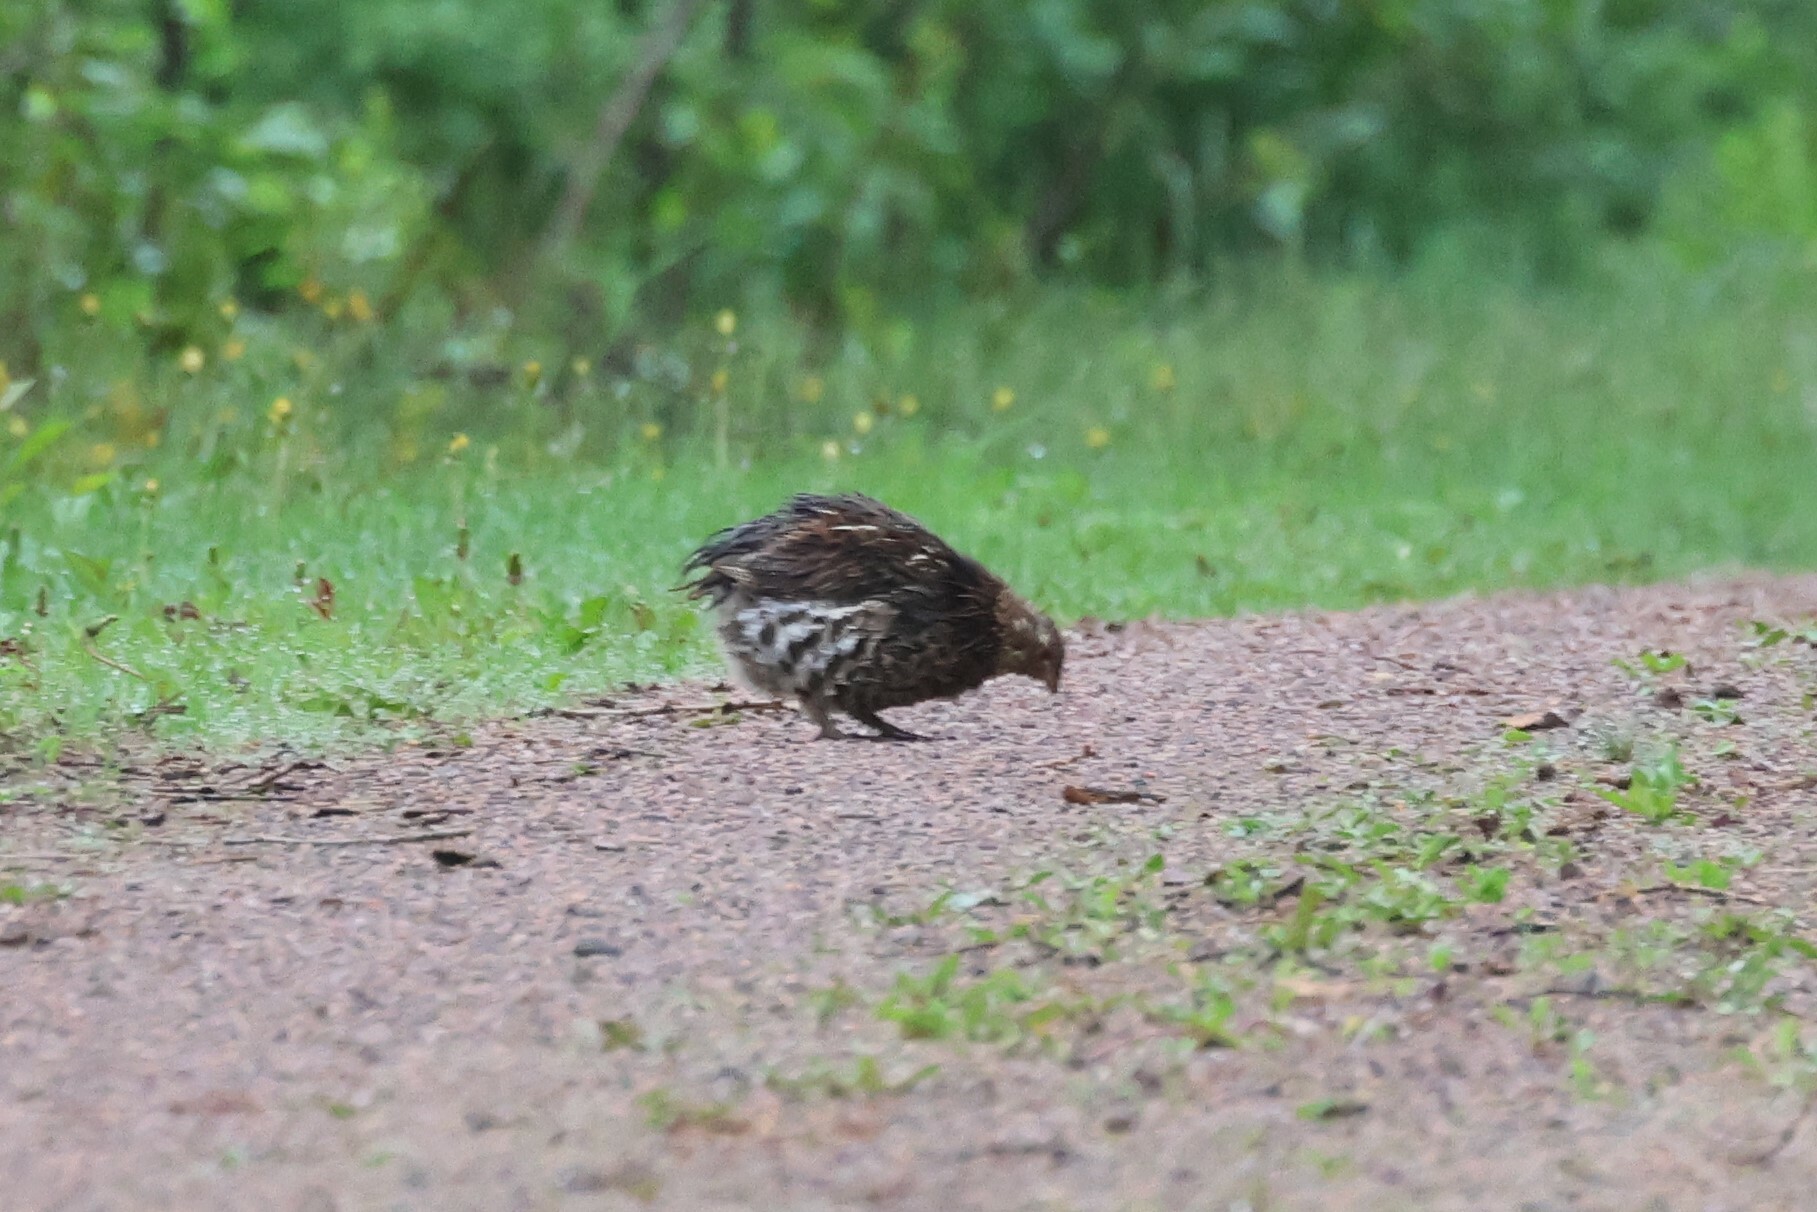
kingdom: Animalia
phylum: Chordata
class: Aves
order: Galliformes
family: Phasianidae
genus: Bonasa
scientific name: Bonasa umbellus
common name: Ruffed grouse
